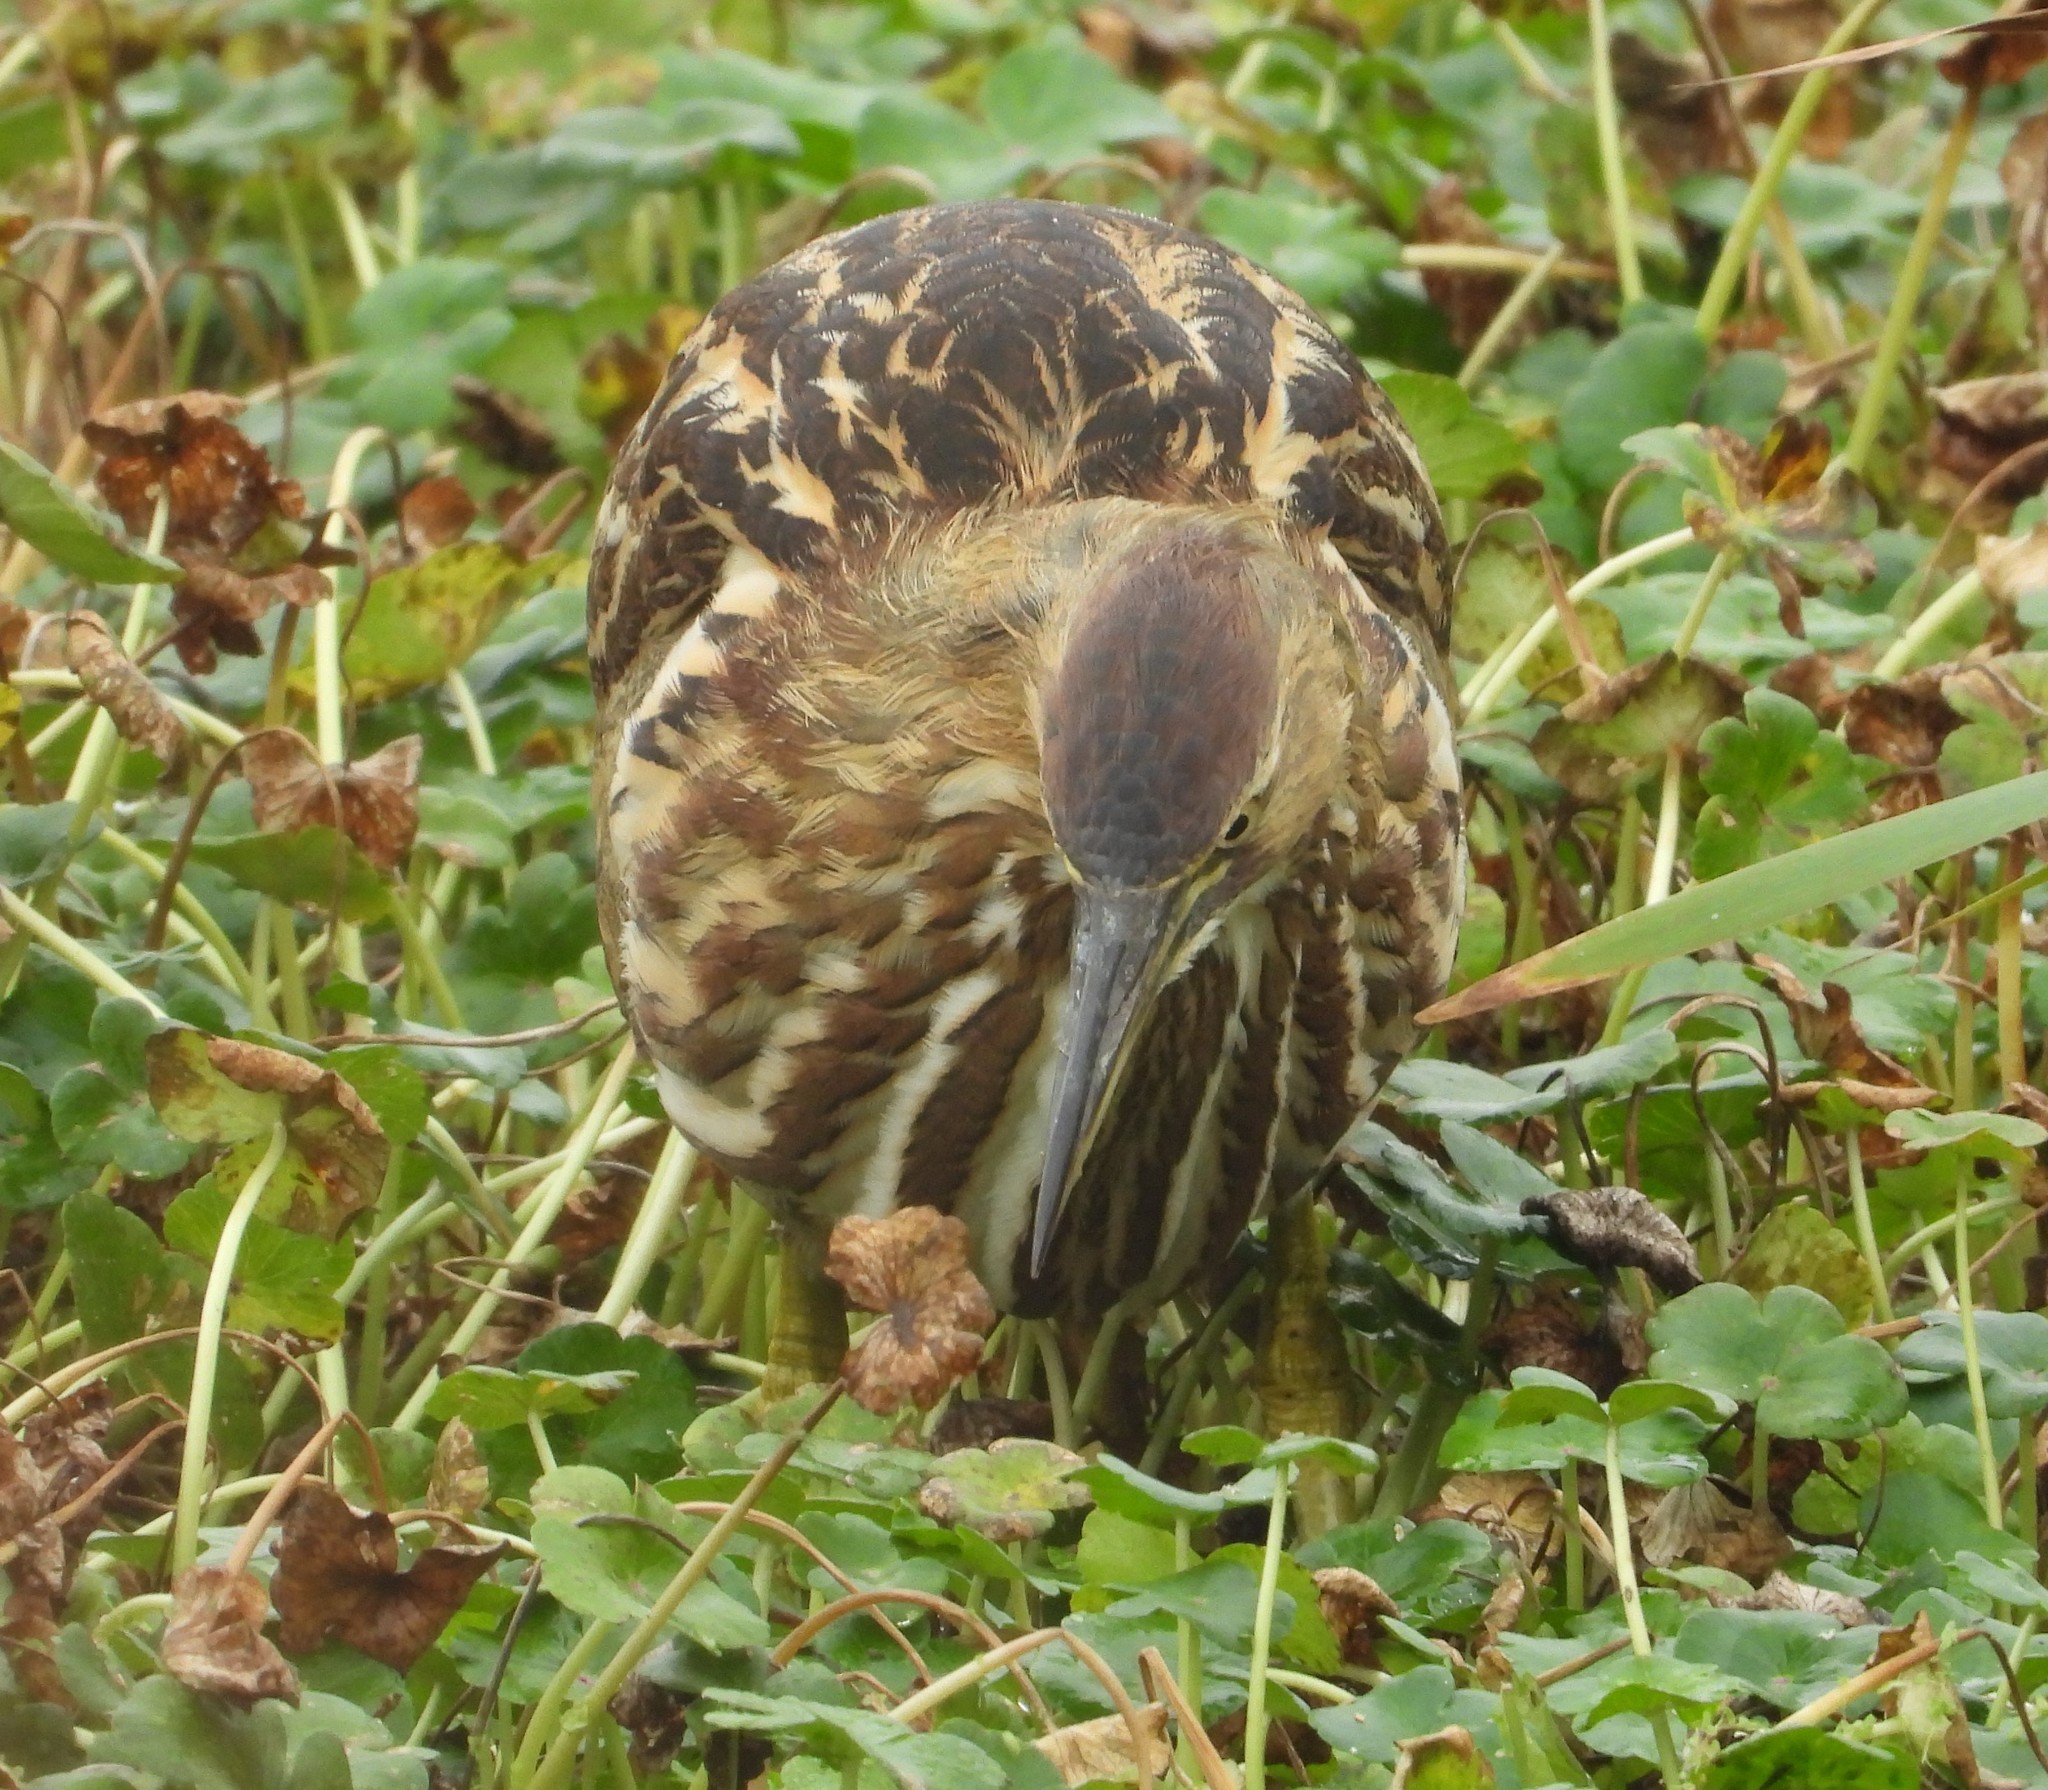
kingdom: Animalia
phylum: Chordata
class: Aves
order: Pelecaniformes
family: Ardeidae
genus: Botaurus
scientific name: Botaurus lentiginosus
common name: American bittern
